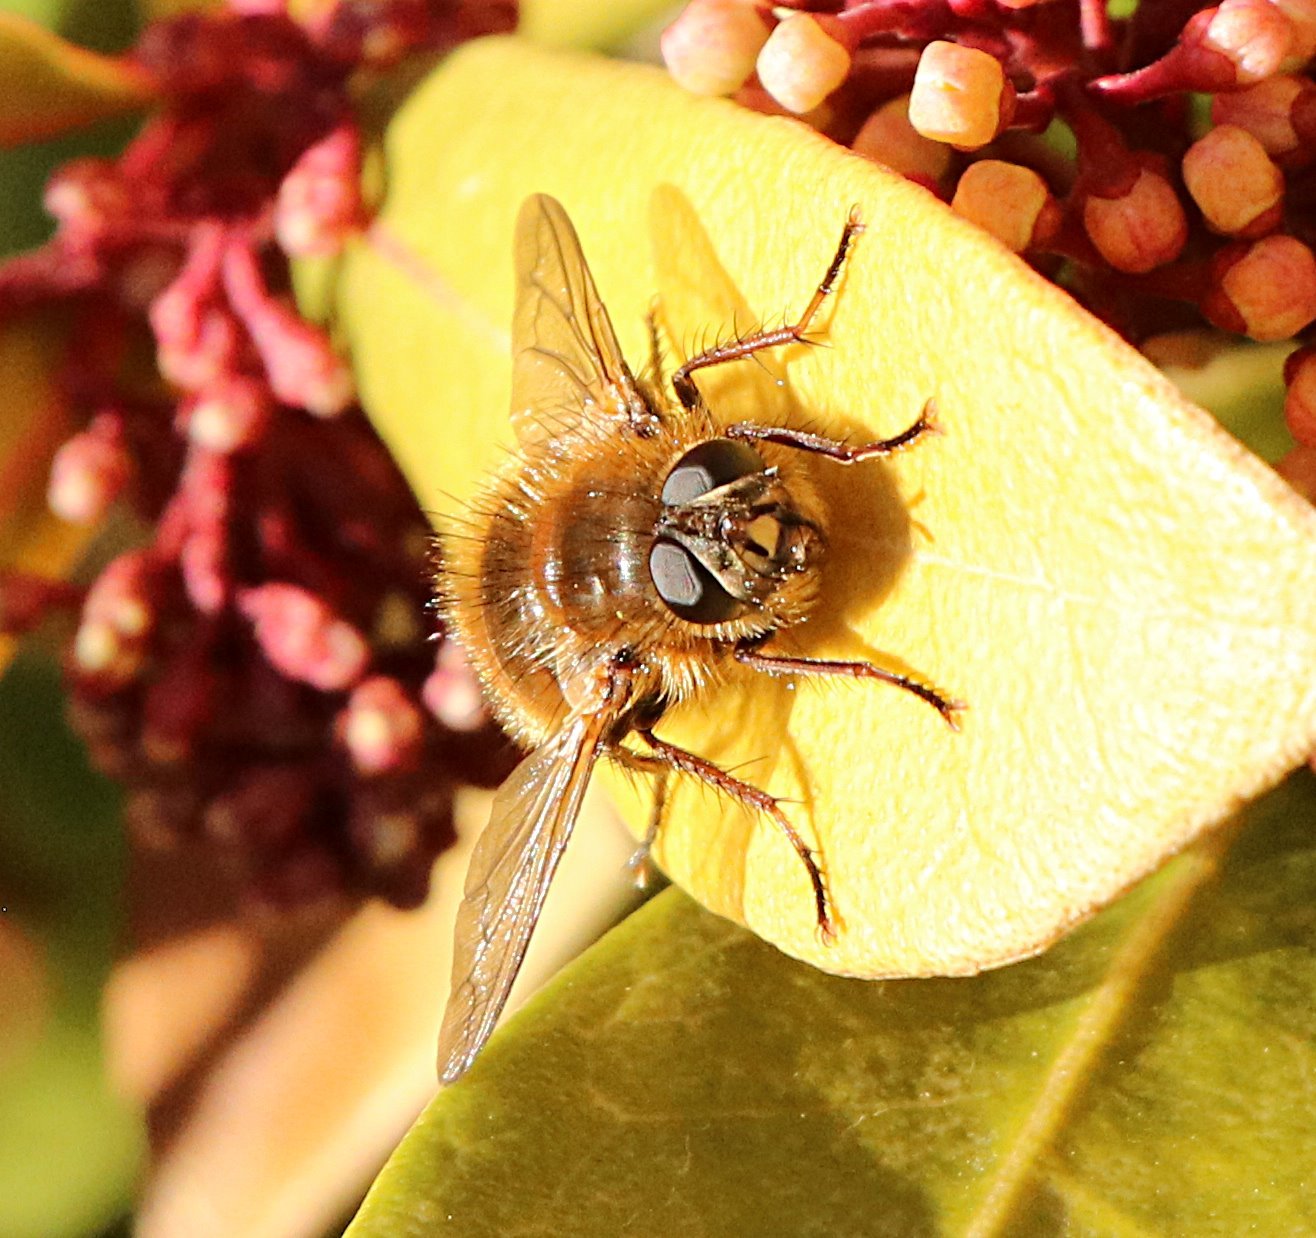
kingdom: Animalia
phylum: Arthropoda
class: Insecta
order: Diptera
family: Tachinidae
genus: Tachina
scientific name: Tachina ursina
